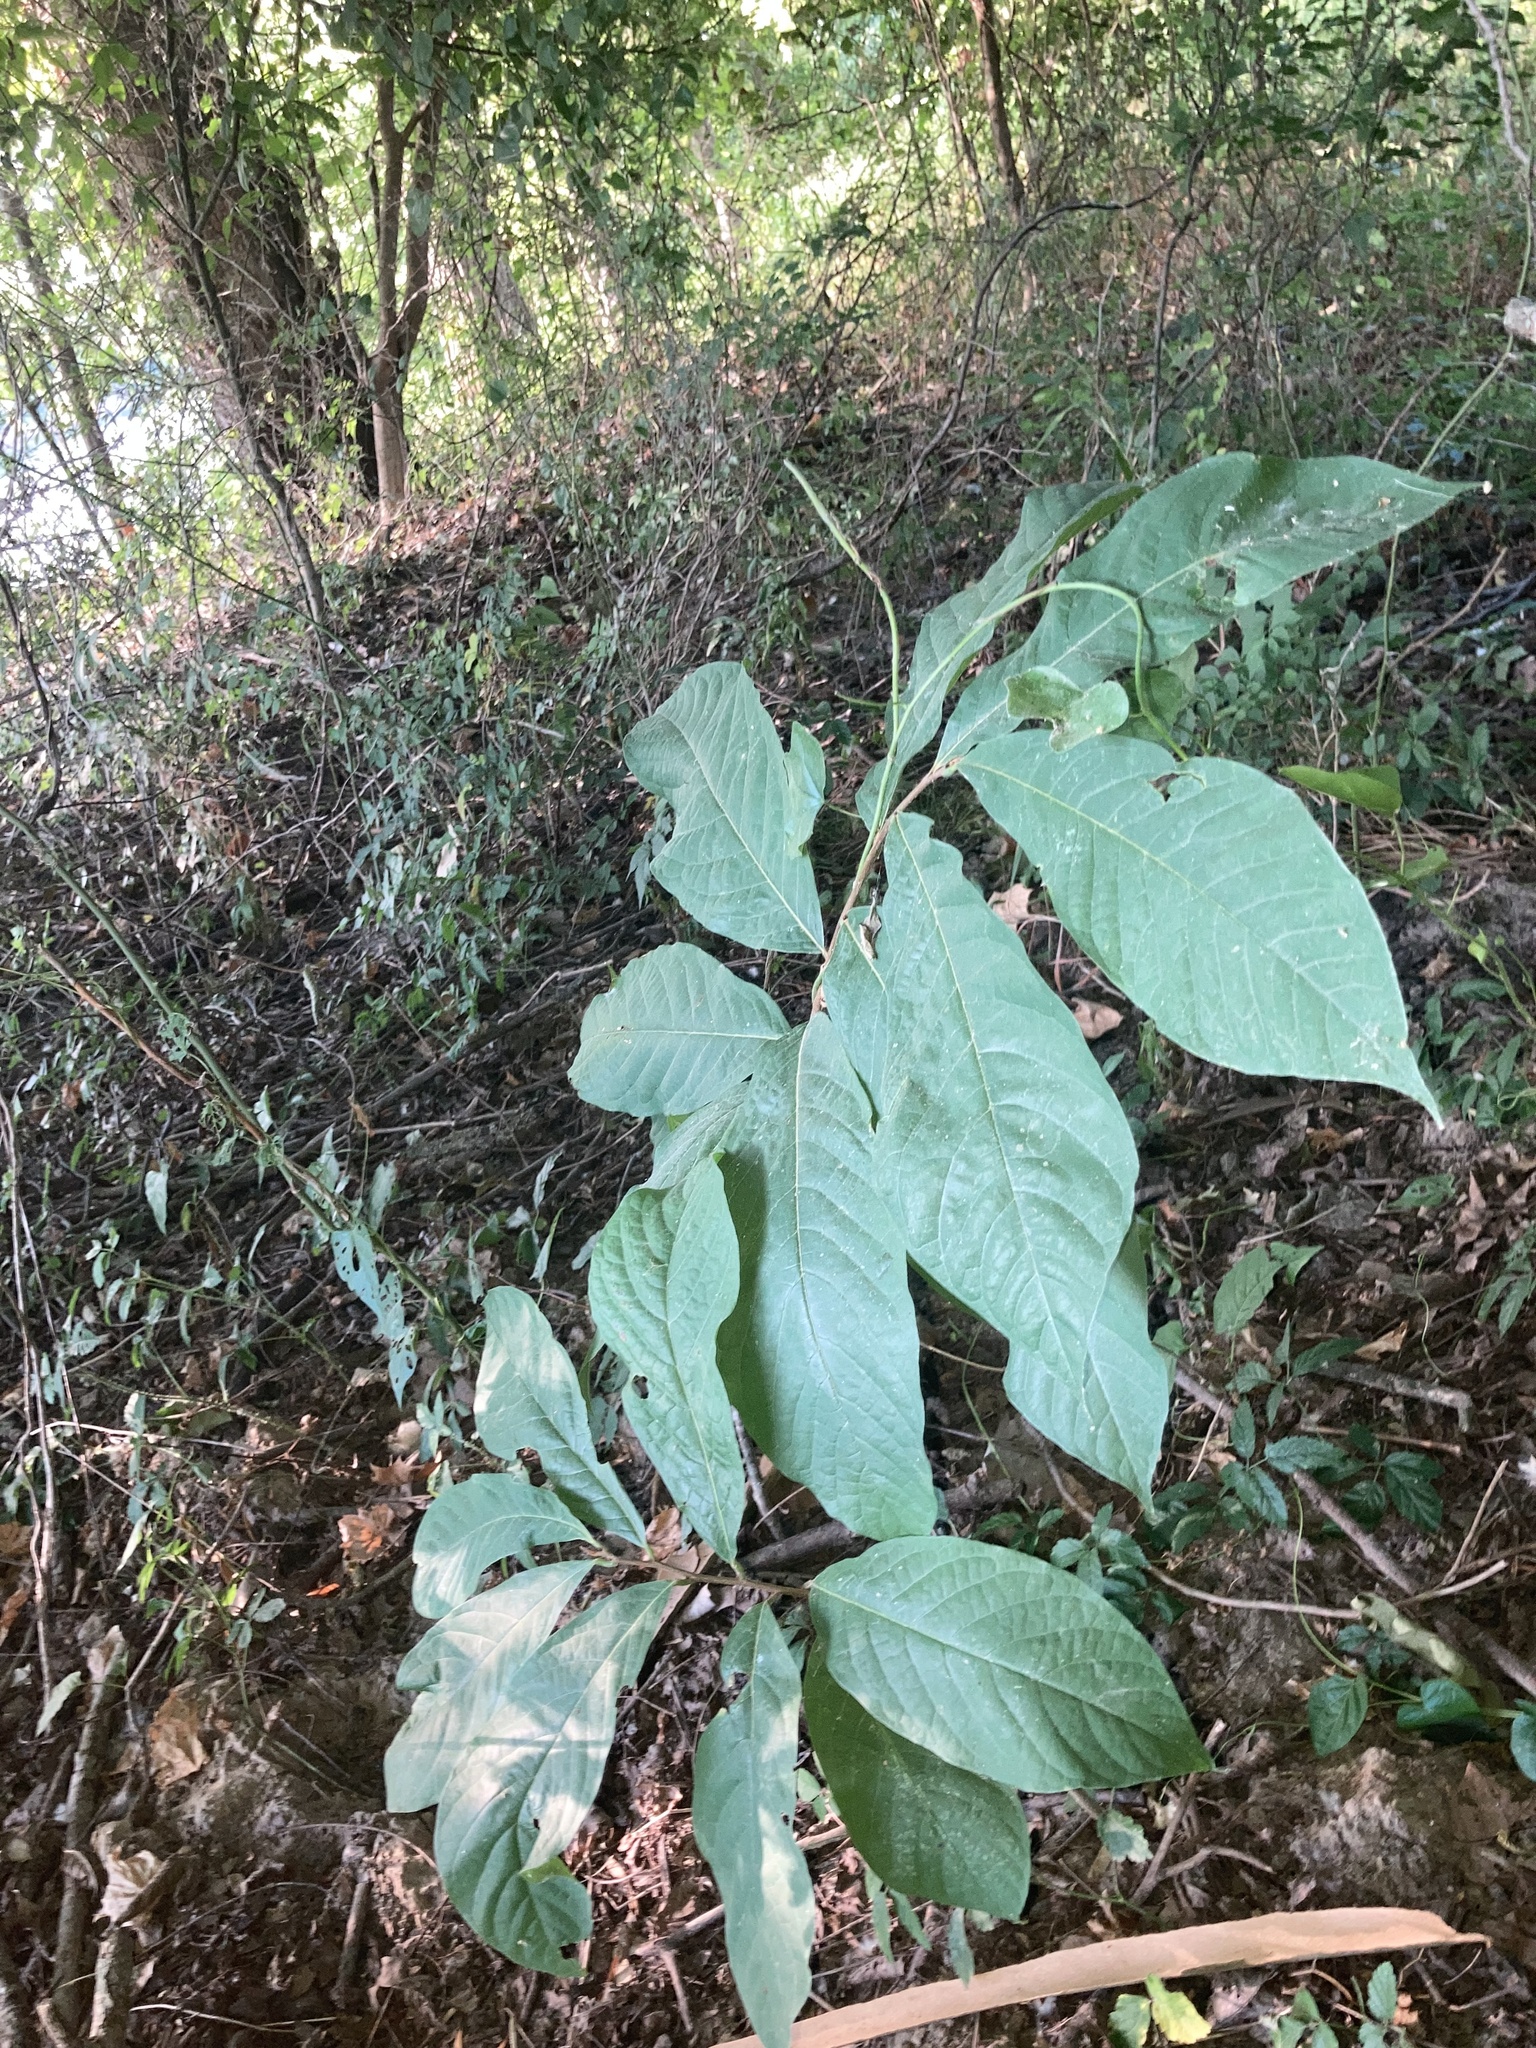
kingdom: Plantae
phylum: Tracheophyta
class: Magnoliopsida
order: Magnoliales
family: Annonaceae
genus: Asimina
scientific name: Asimina triloba
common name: Dog-banana
